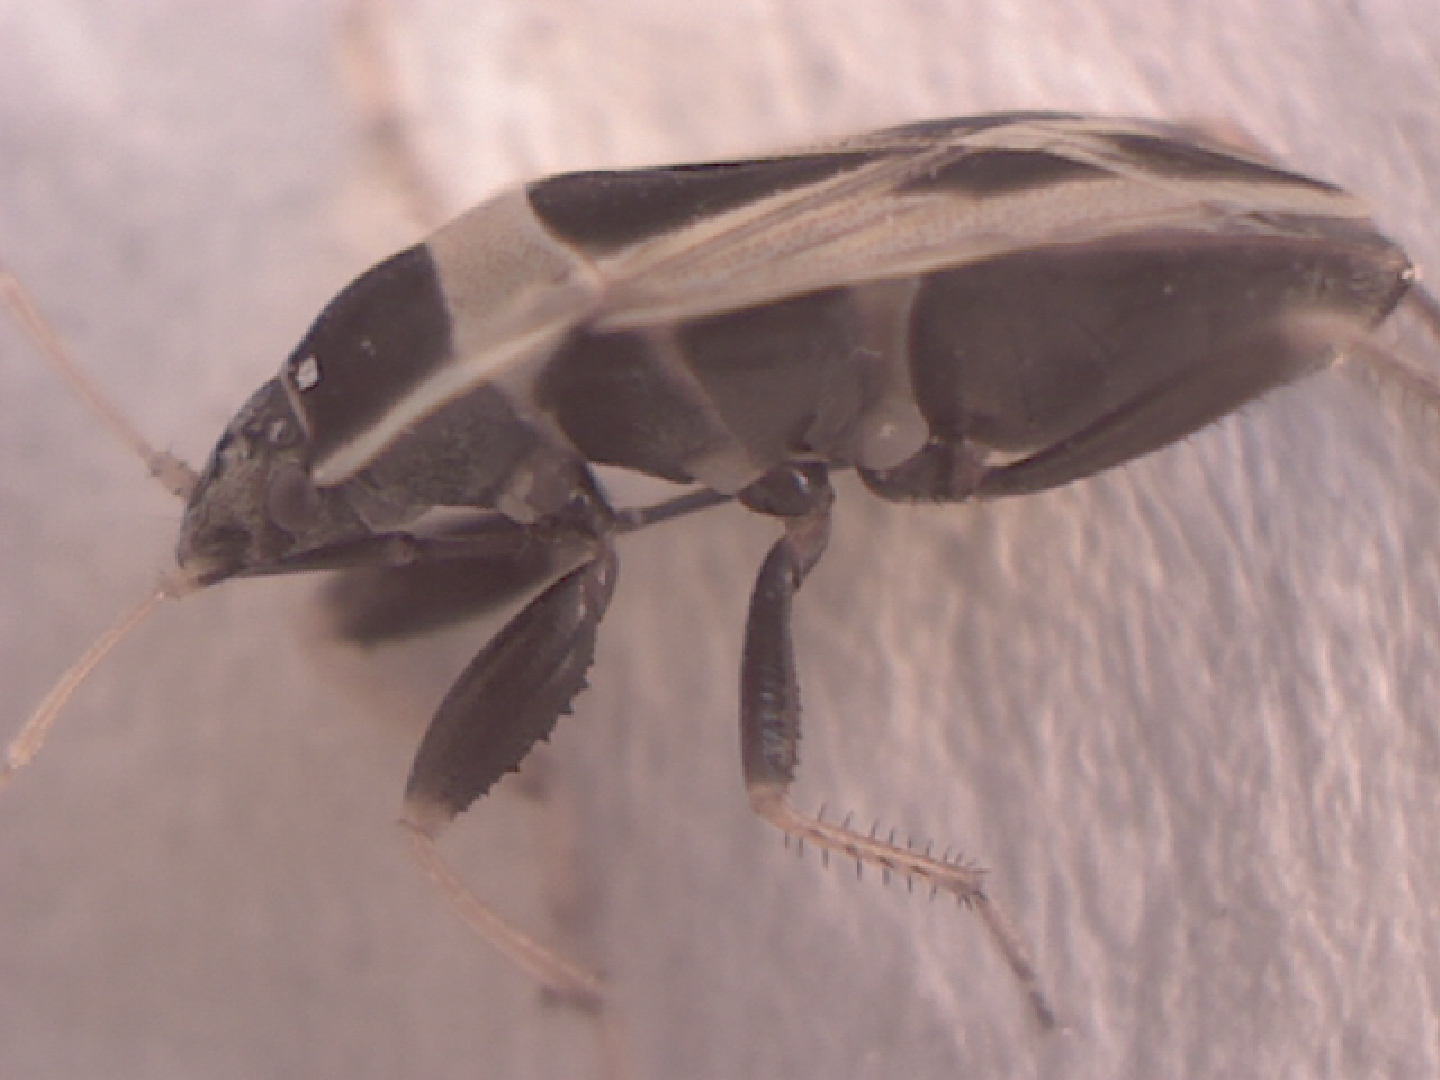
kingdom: Animalia
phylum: Arthropoda
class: Insecta
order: Hemiptera
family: Rhyparochromidae
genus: Xanthochilus
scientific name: Xanthochilus saturnius
